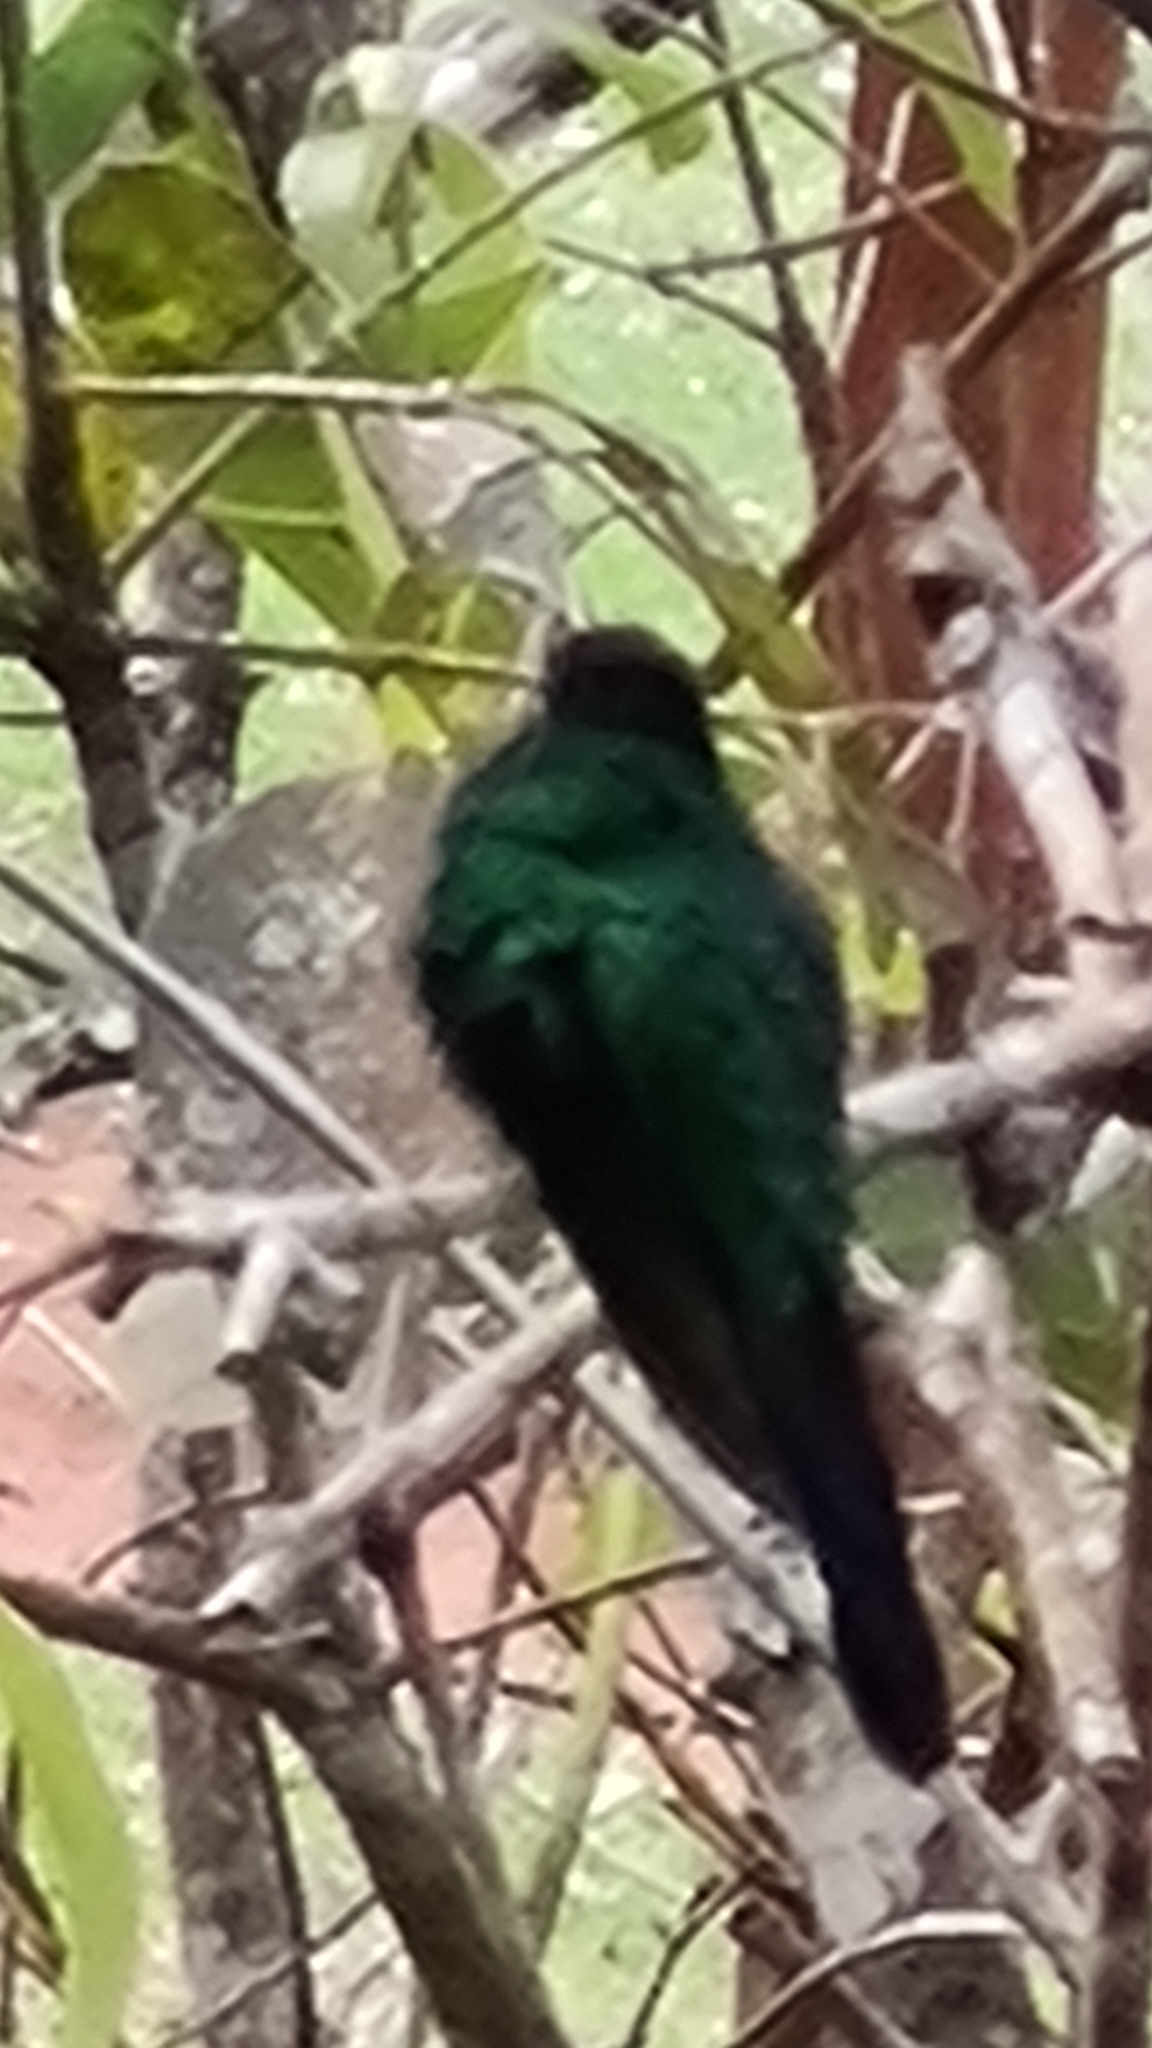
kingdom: Animalia
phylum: Chordata
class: Aves
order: Apodiformes
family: Trochilidae
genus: Thalurania
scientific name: Thalurania glaucopis
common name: Violet-capped woodnymph
